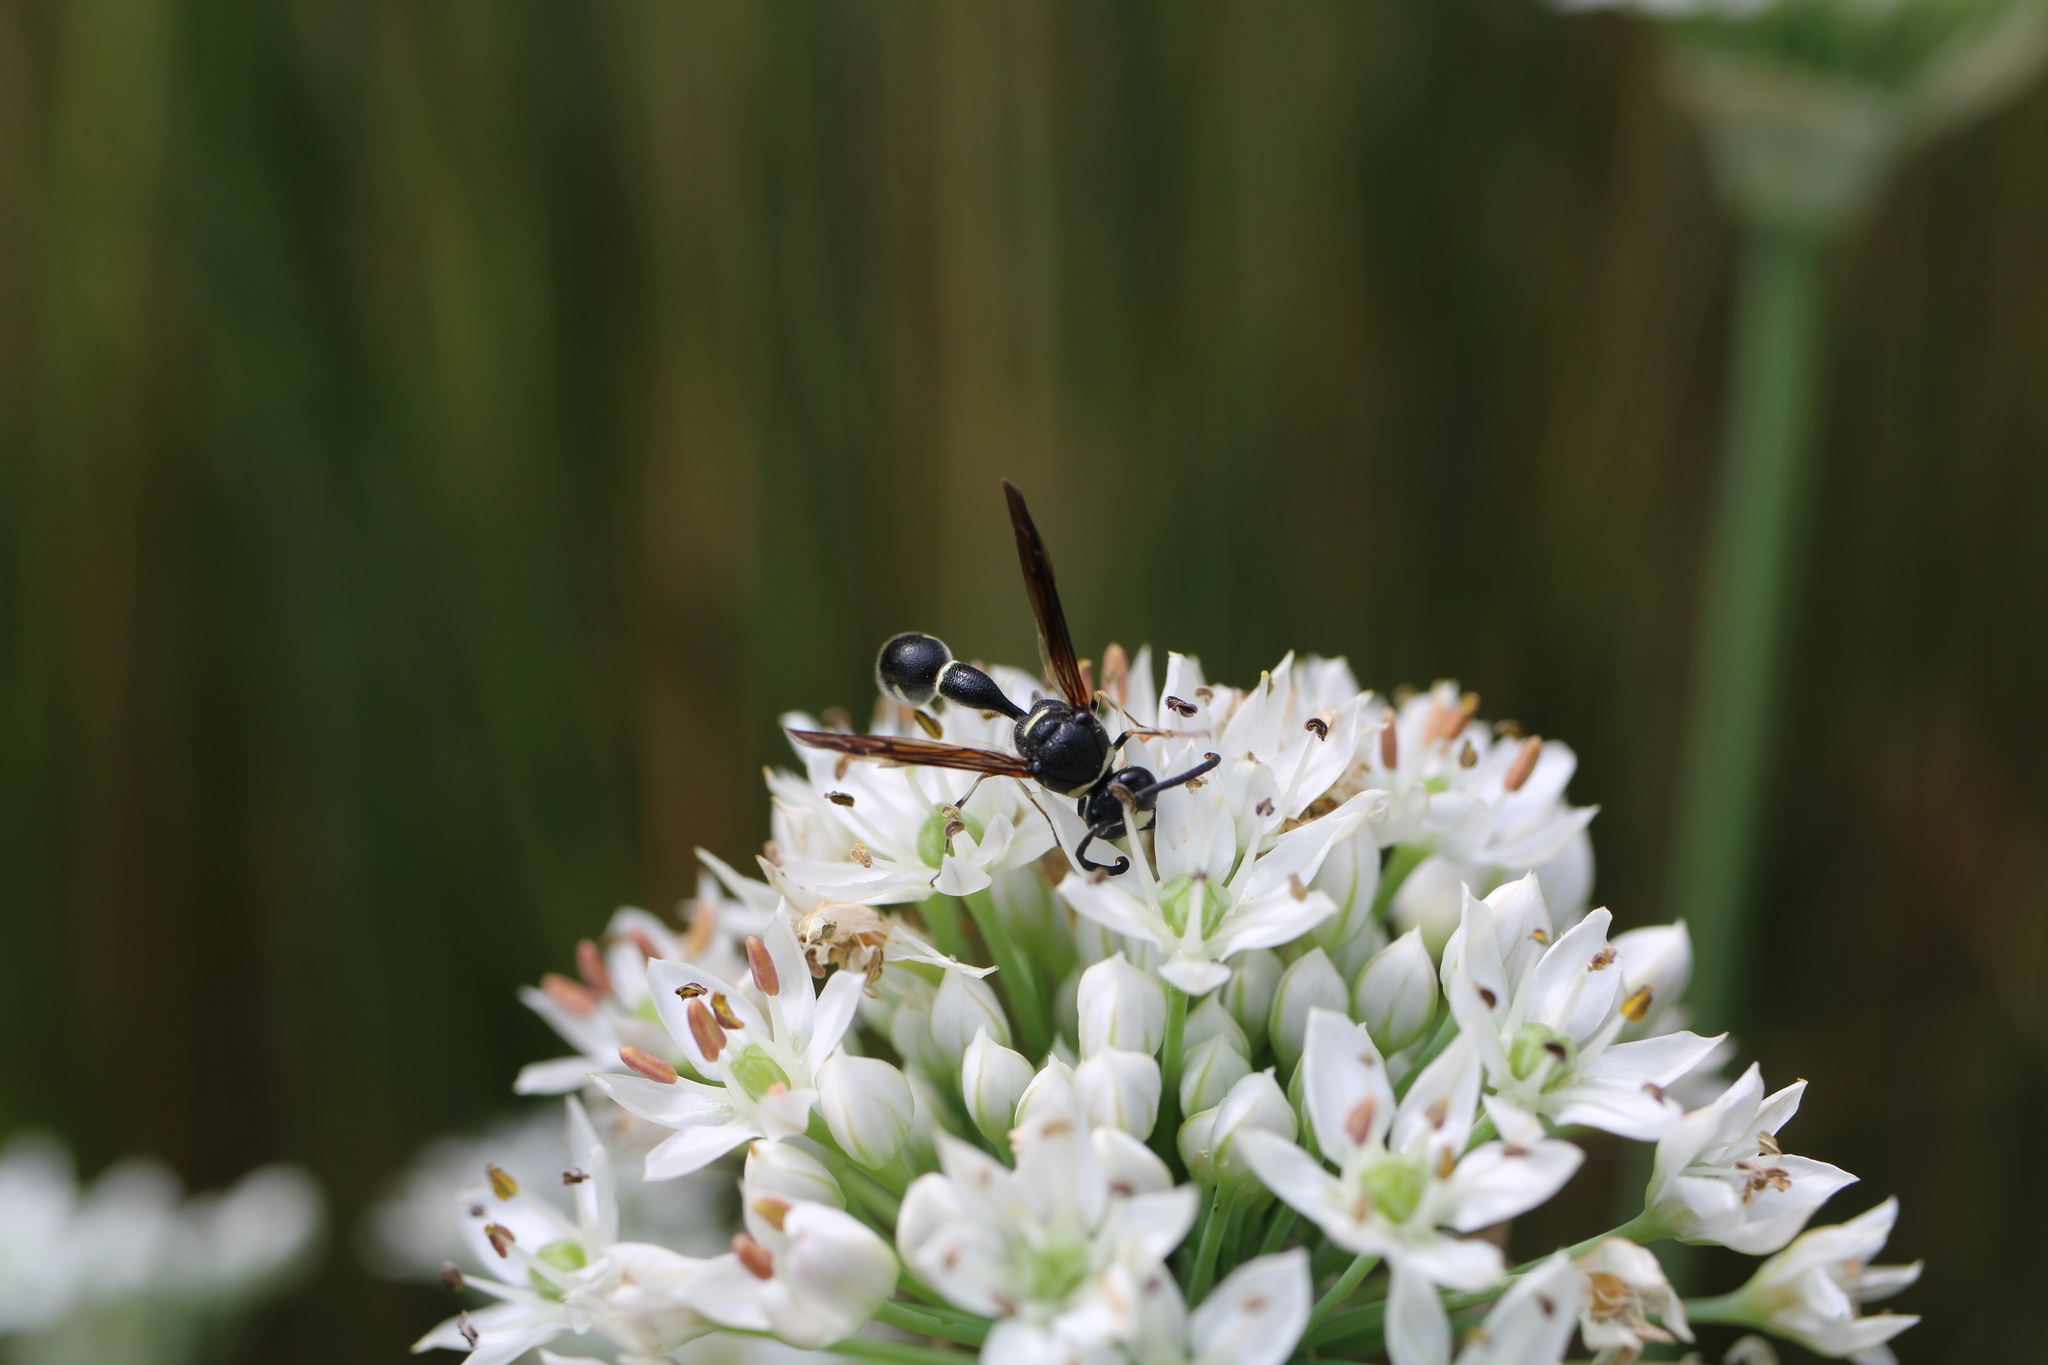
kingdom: Animalia
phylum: Arthropoda
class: Insecta
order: Hymenoptera
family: Vespidae
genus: Eumenes
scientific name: Eumenes fraternus
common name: Fraternal potter wasp
